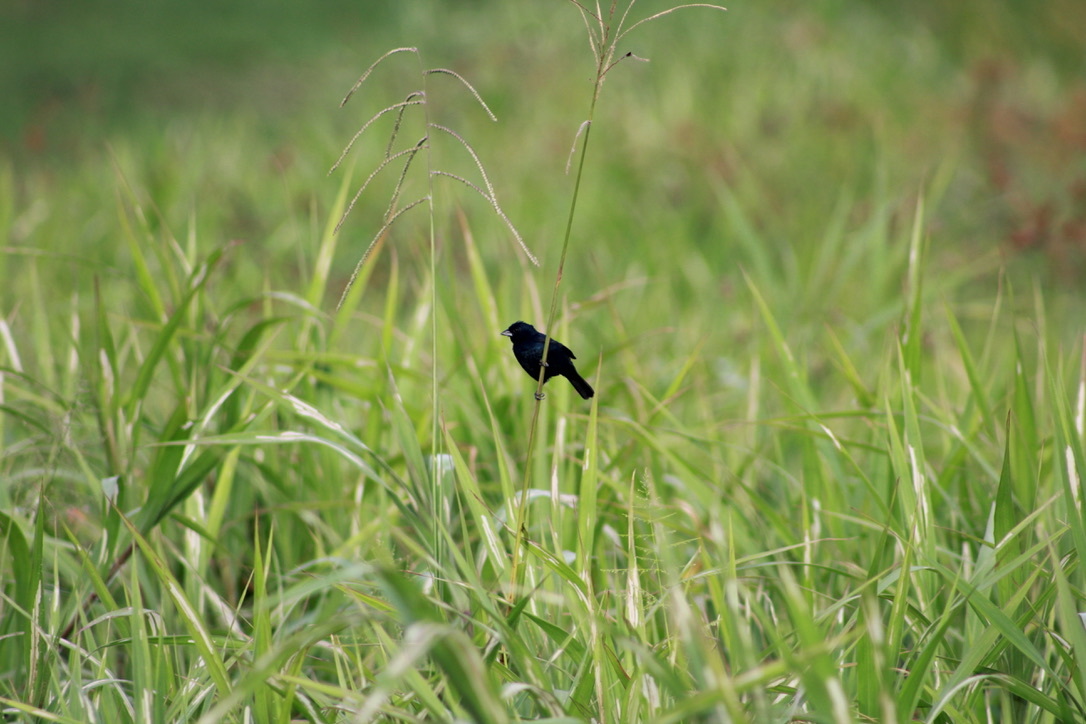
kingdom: Animalia
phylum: Chordata
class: Aves
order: Passeriformes
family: Thraupidae
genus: Volatinia
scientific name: Volatinia jacarina
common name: Blue-black grassquit
